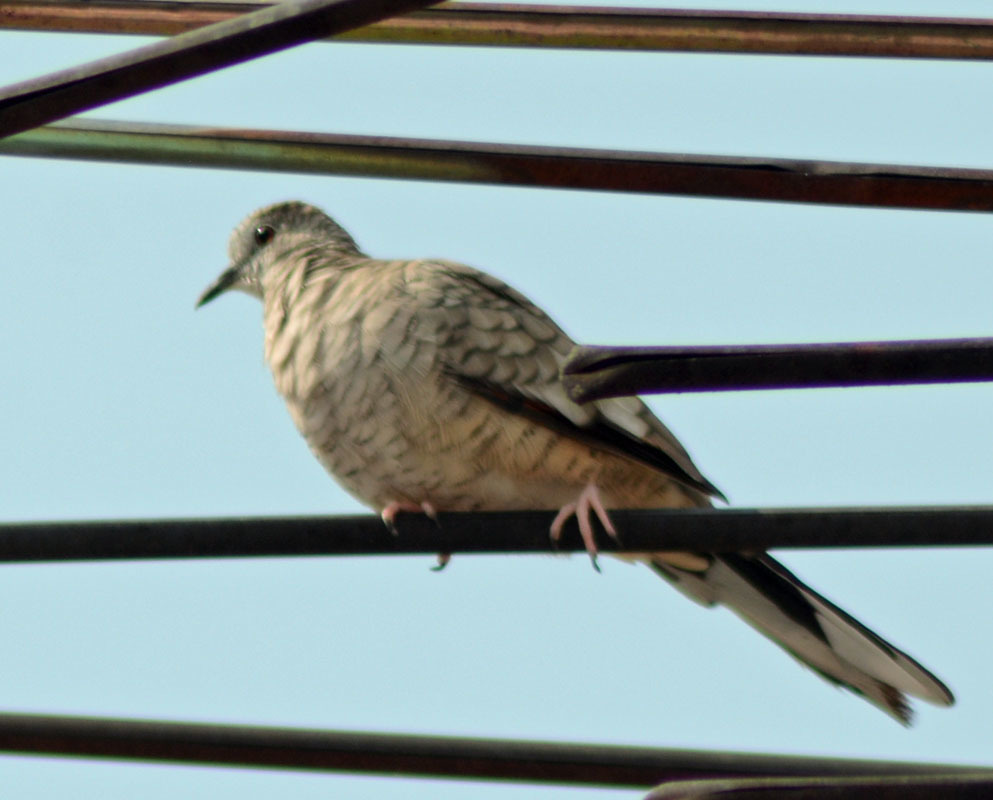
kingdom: Animalia
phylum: Chordata
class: Aves
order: Columbiformes
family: Columbidae
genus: Columbina
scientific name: Columbina inca
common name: Inca dove
